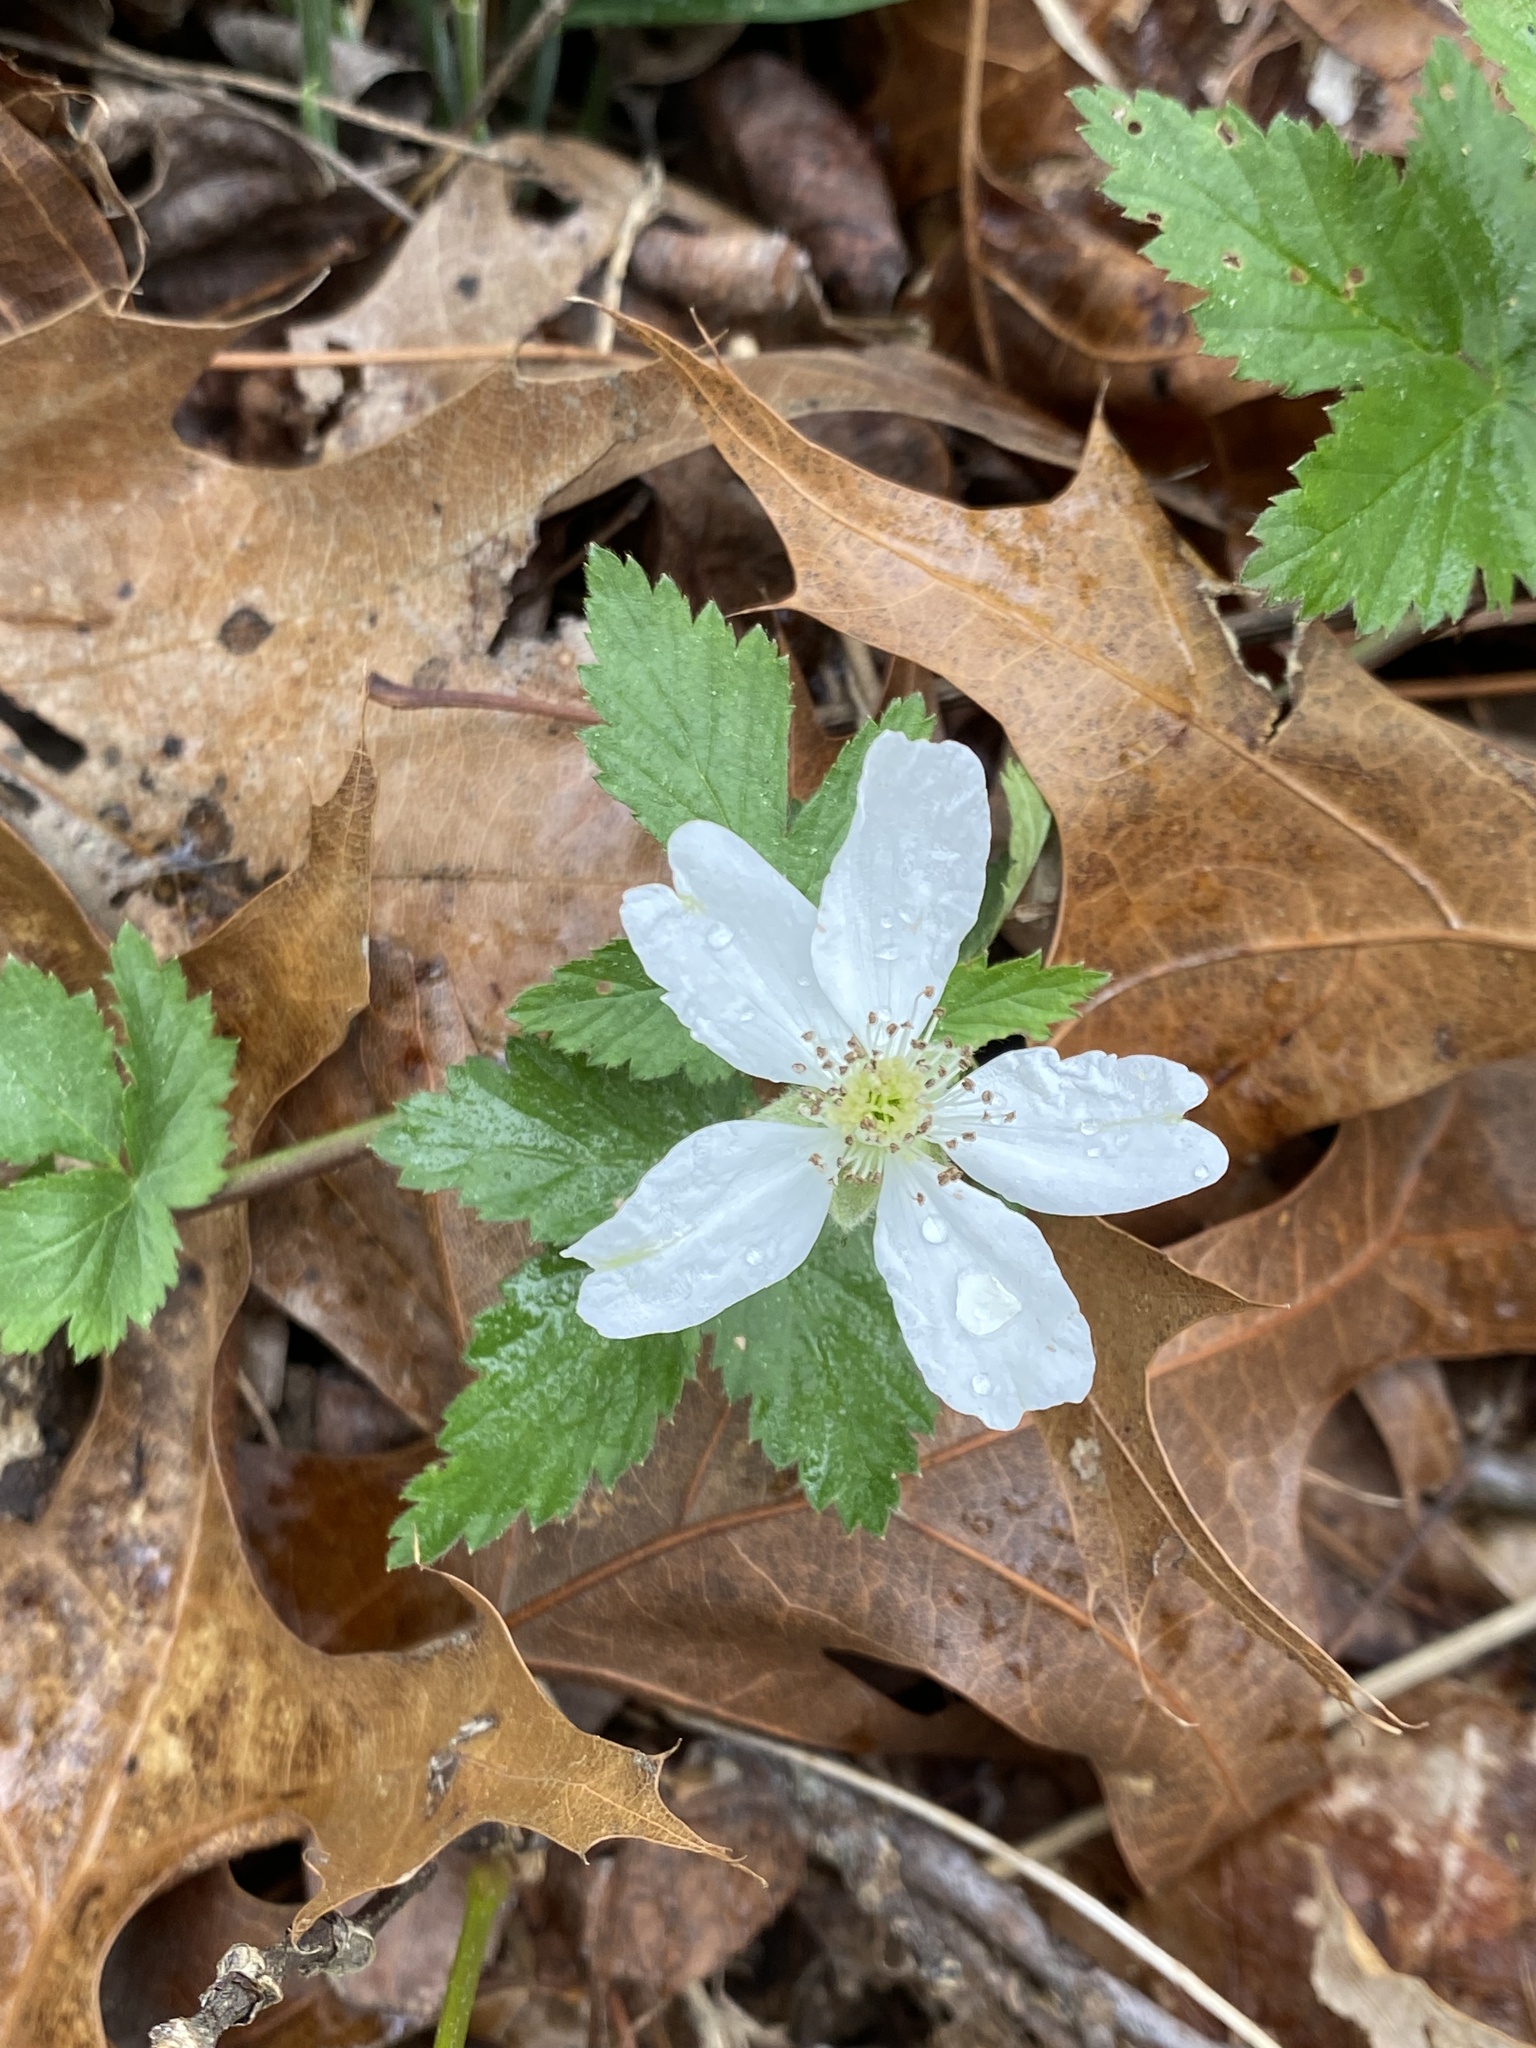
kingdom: Plantae
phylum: Tracheophyta
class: Magnoliopsida
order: Rosales
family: Rosaceae
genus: Rubus
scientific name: Rubus flagellaris
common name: American dewberry
